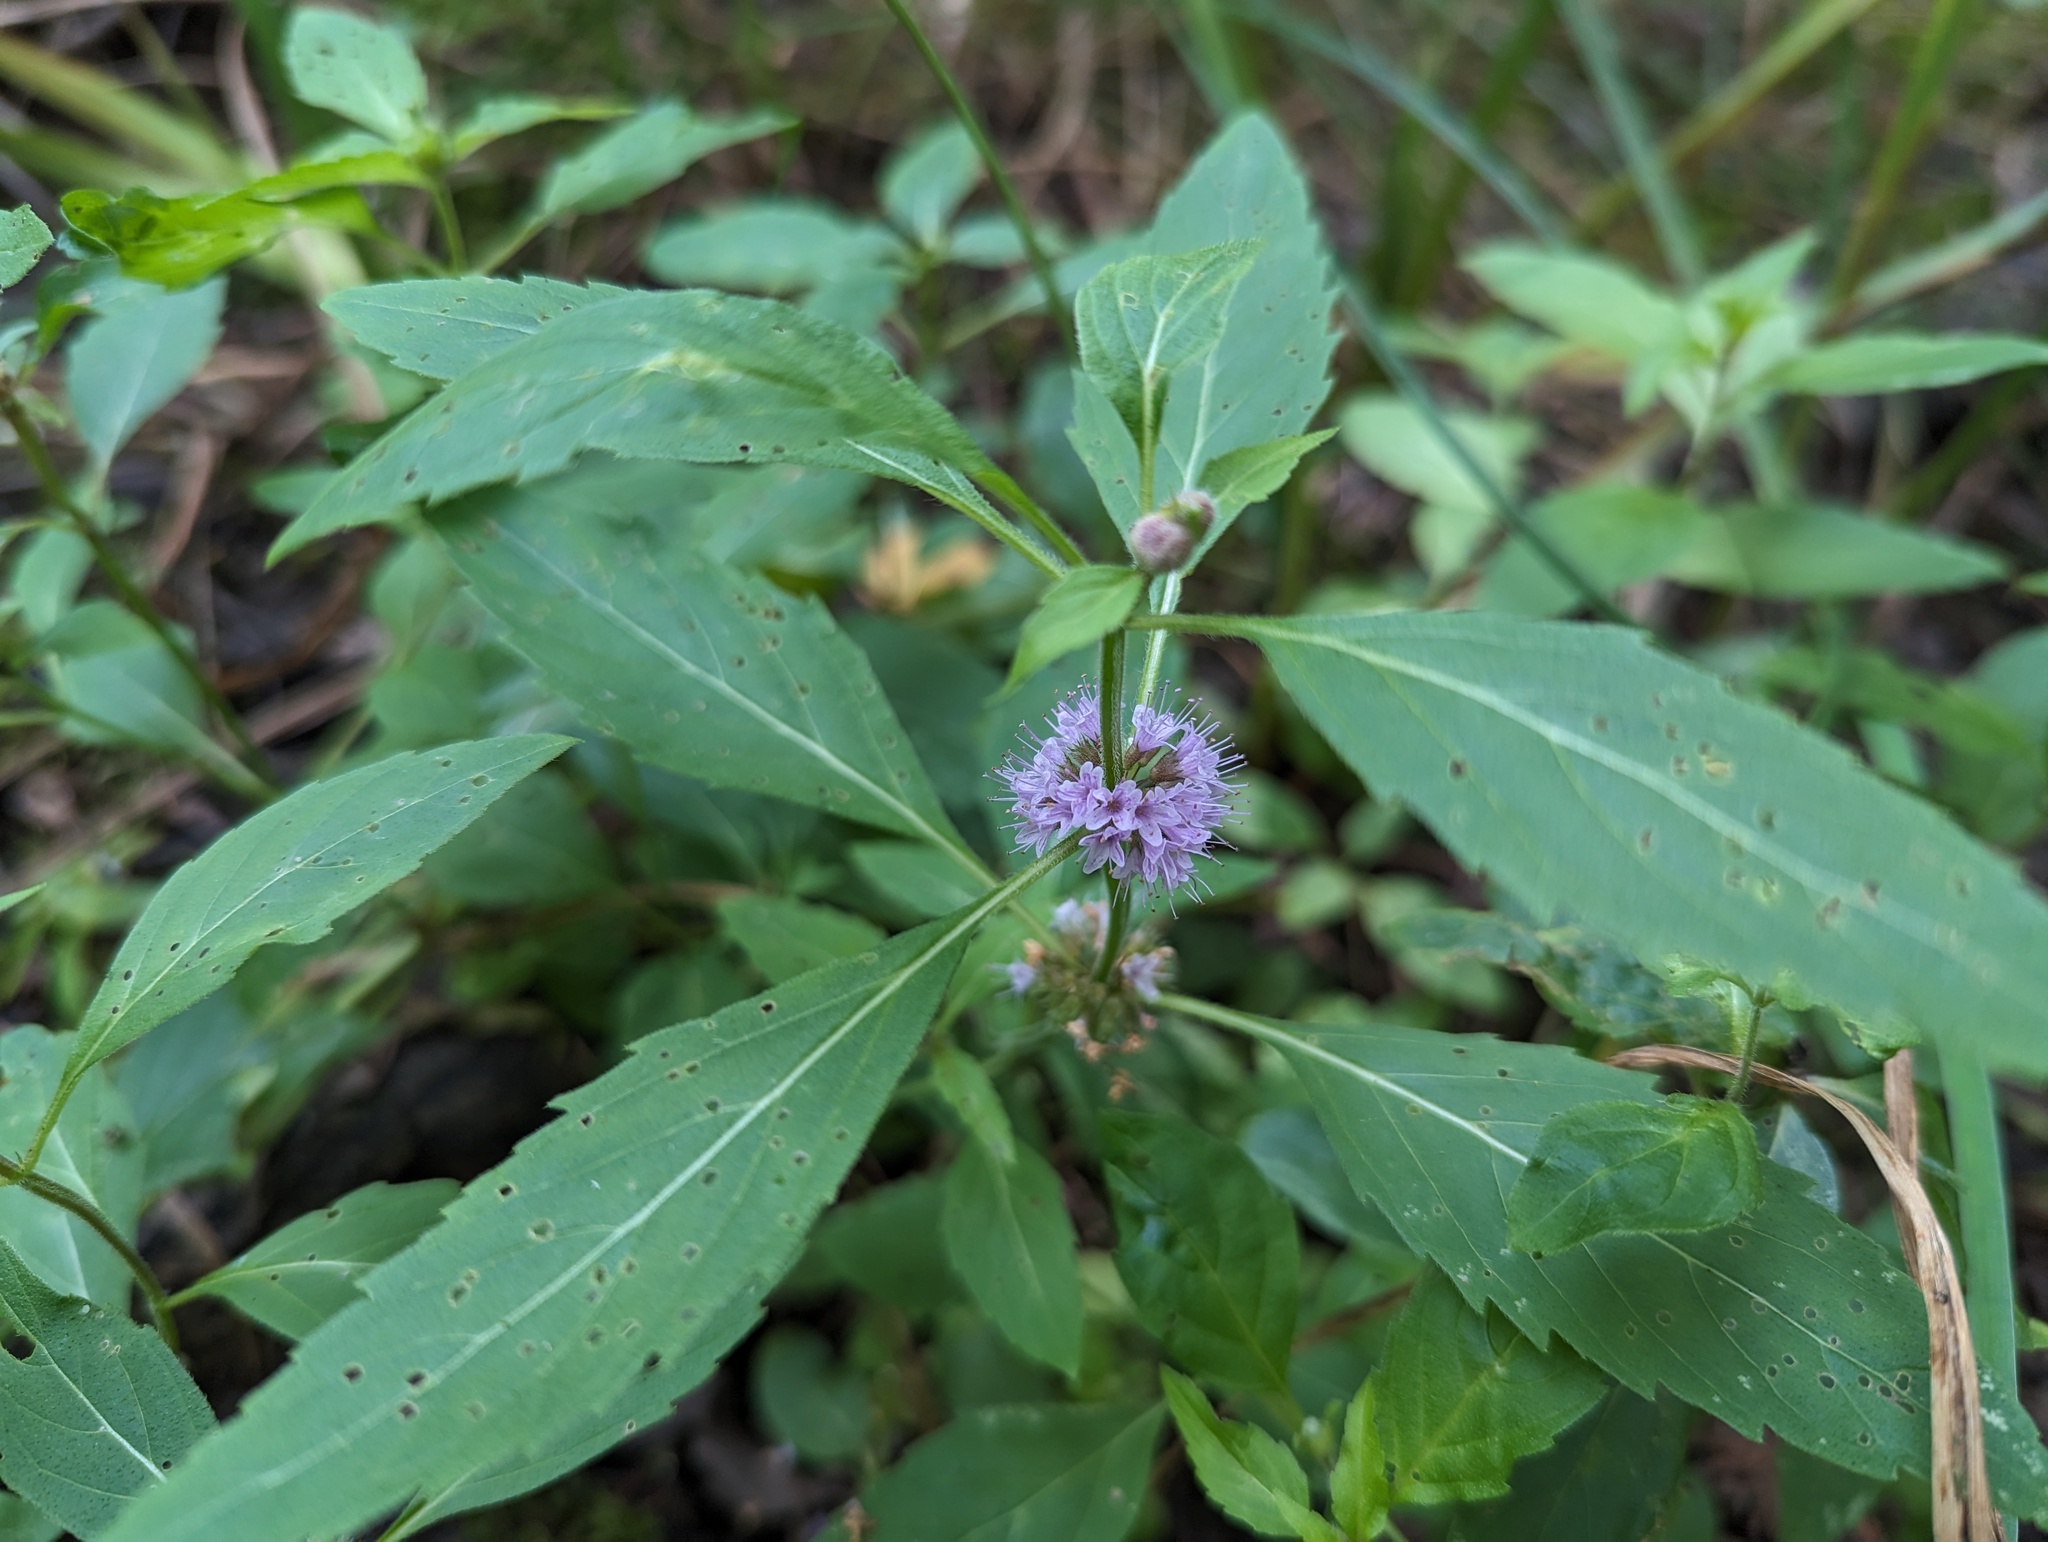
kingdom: Plantae
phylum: Tracheophyta
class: Magnoliopsida
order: Lamiales
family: Lamiaceae
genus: Mentha
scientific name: Mentha canadensis
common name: American corn mint
